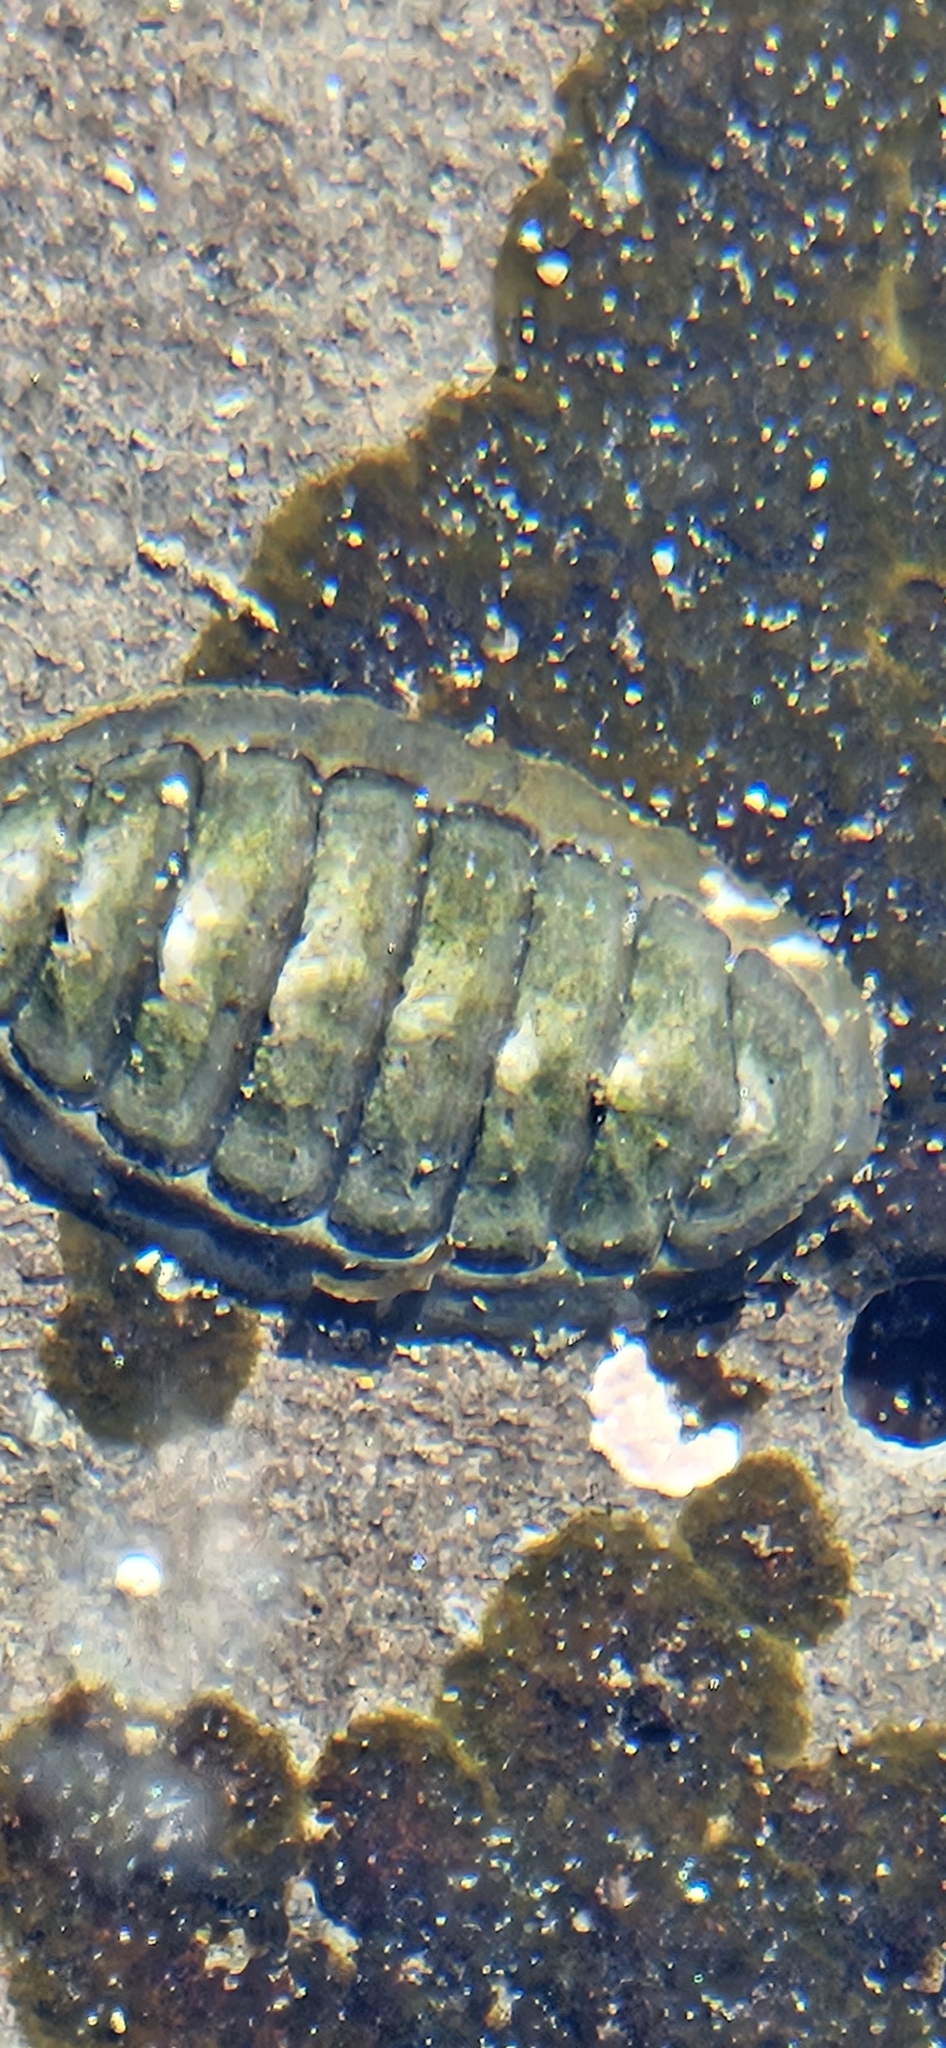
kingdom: Animalia
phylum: Mollusca
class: Polyplacophora
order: Chitonida
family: Tonicellidae
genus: Cyanoplax
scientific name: Cyanoplax hartwegii
